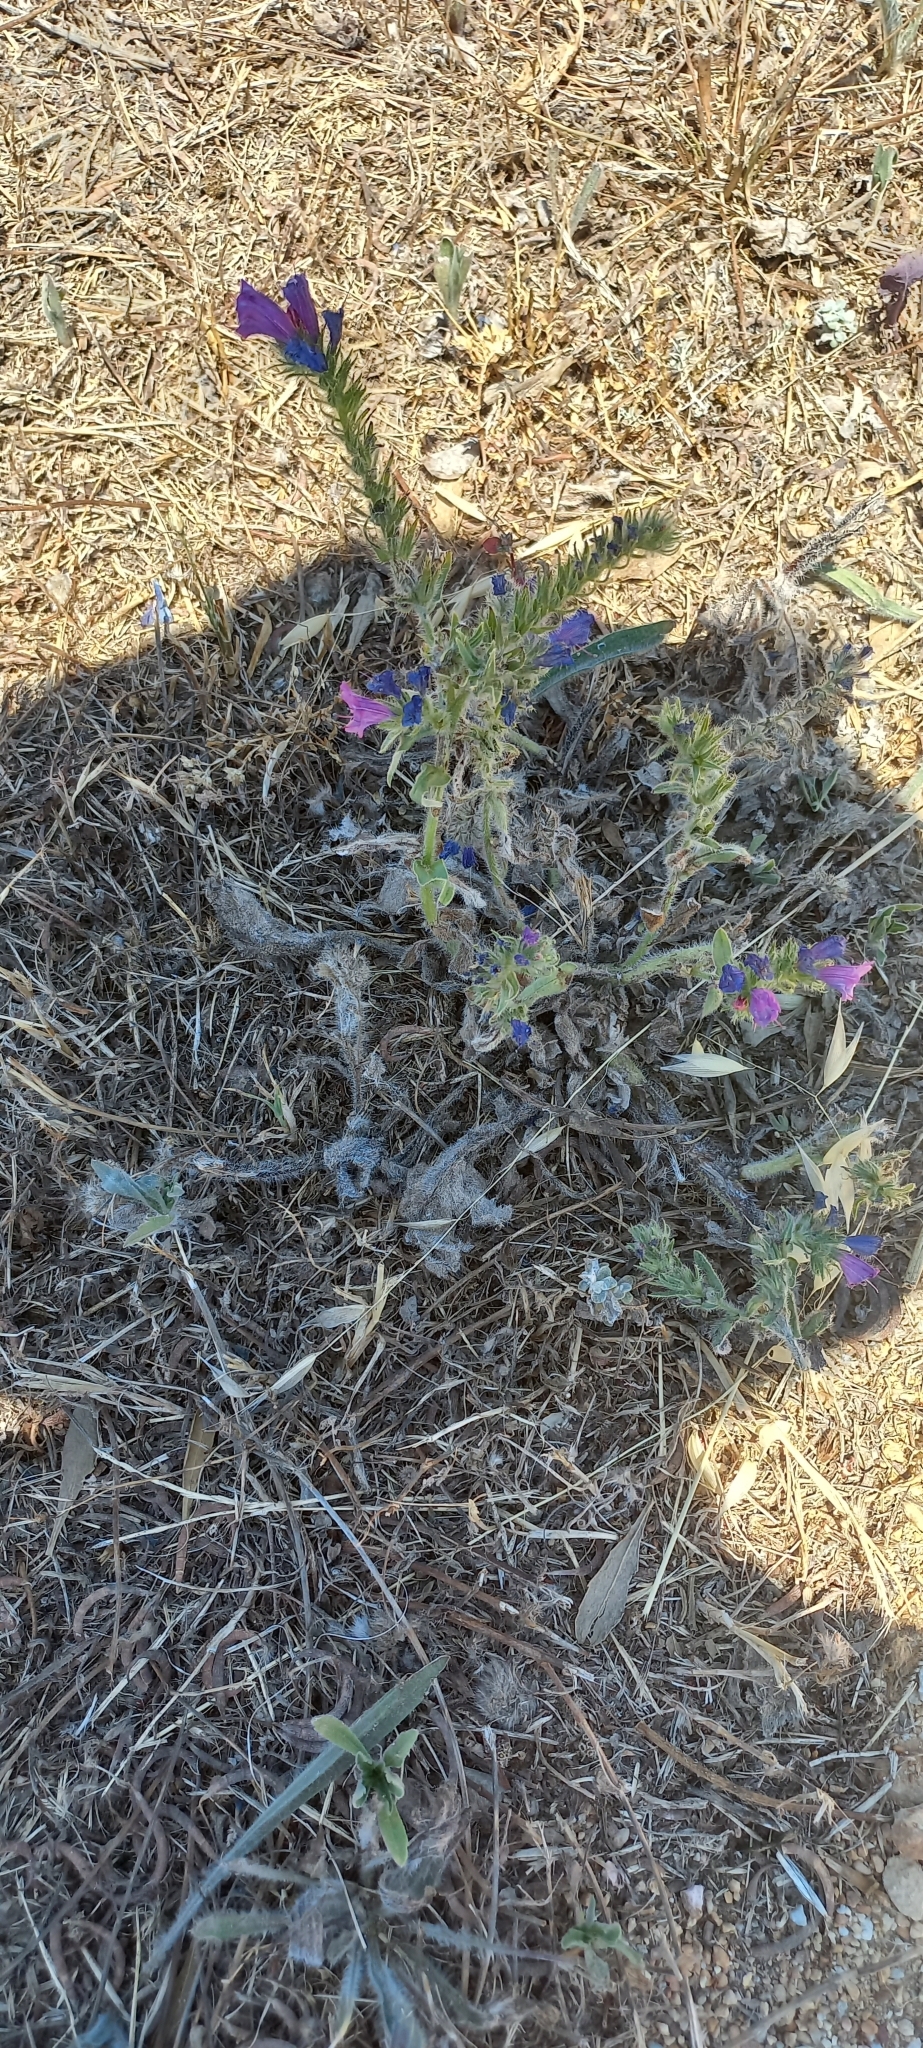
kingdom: Plantae
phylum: Tracheophyta
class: Magnoliopsida
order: Boraginales
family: Boraginaceae
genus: Echium
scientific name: Echium plantagineum
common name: Purple viper's-bugloss
